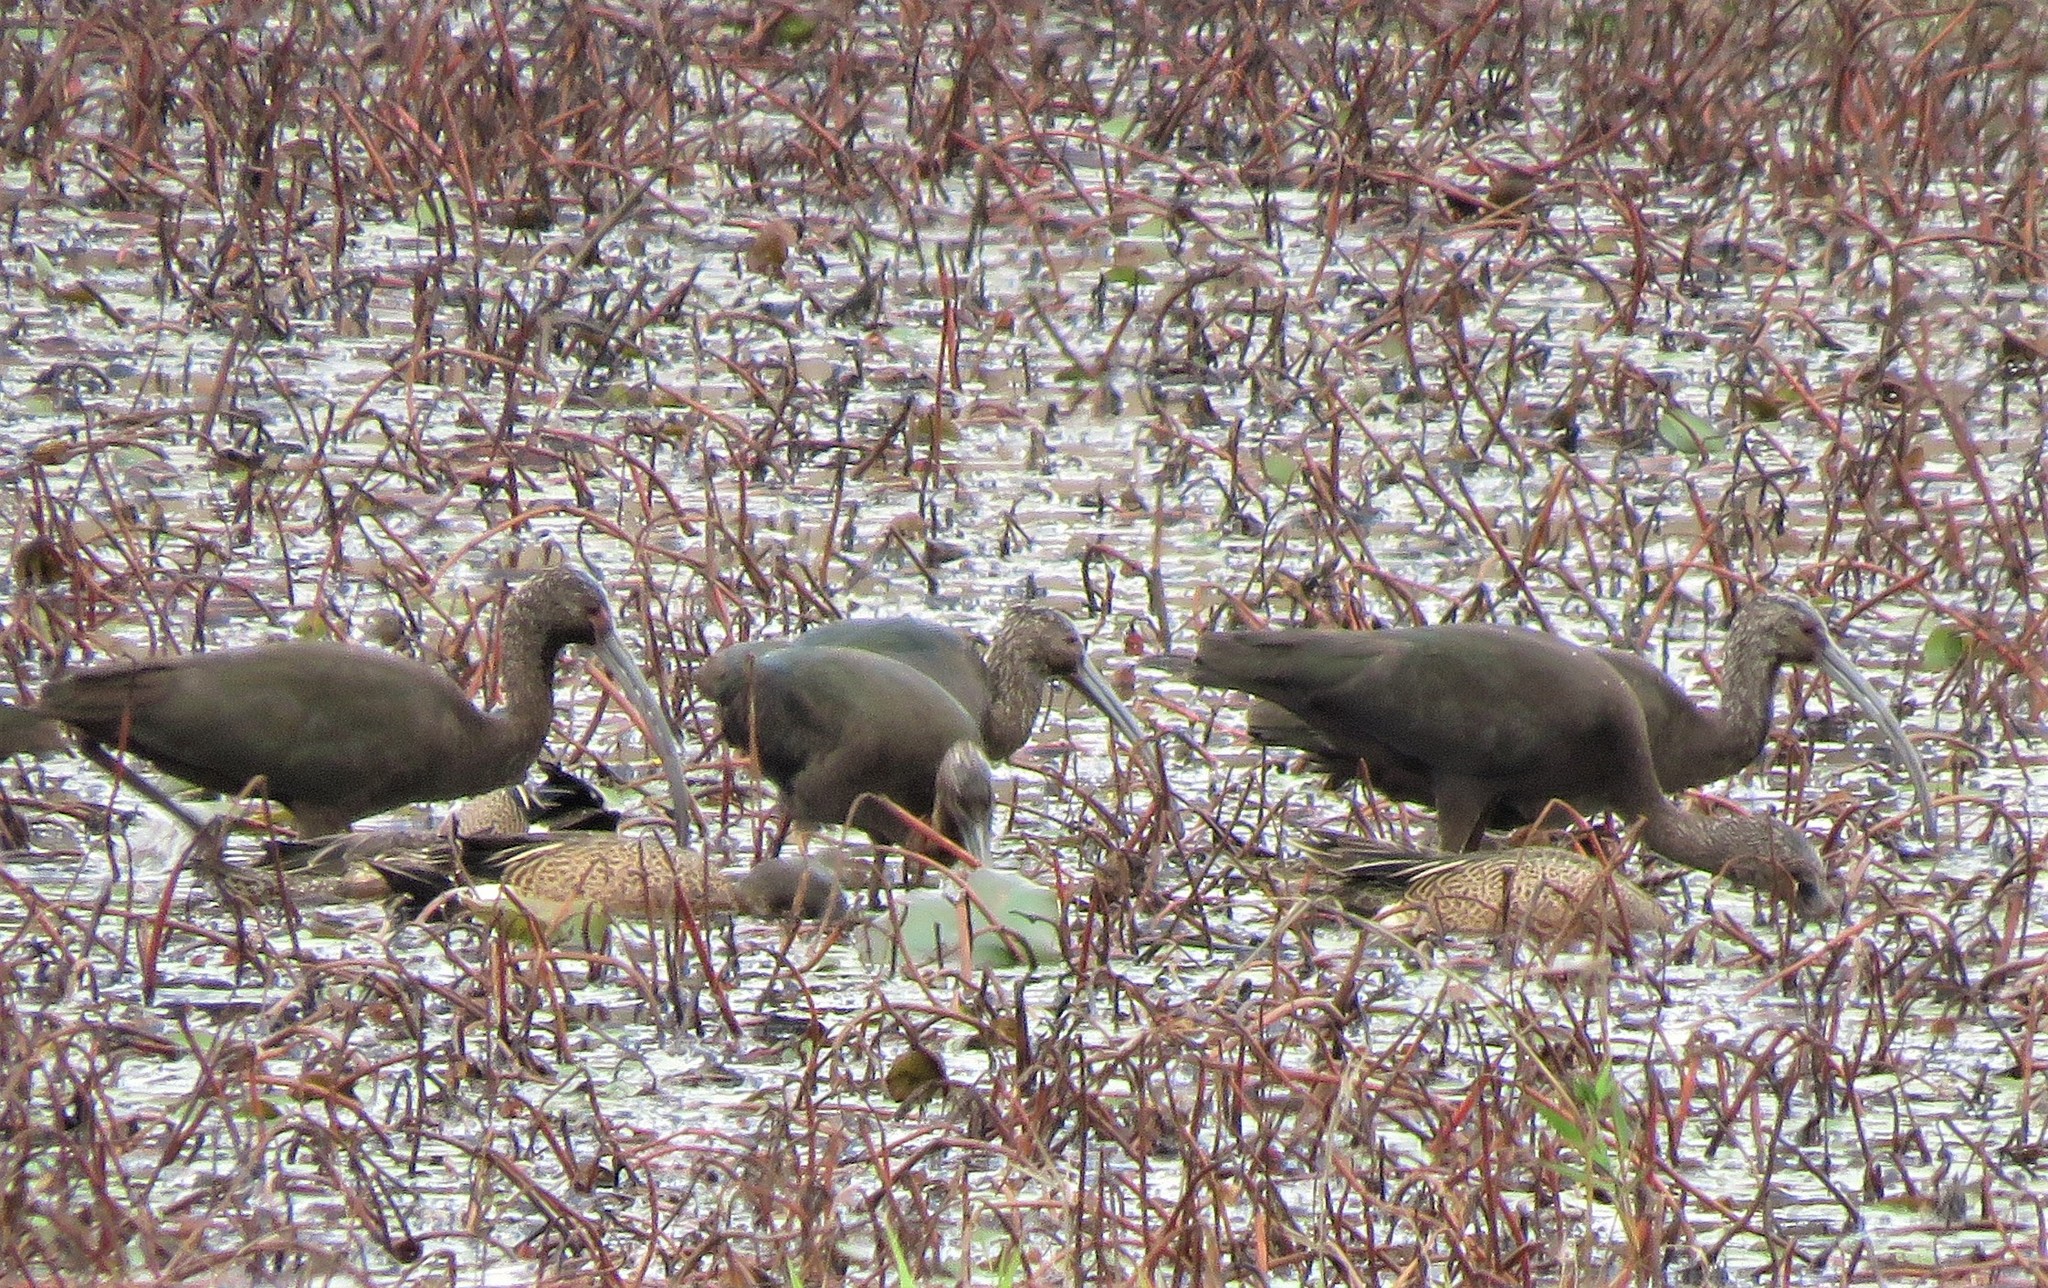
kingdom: Animalia
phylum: Chordata
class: Aves
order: Pelecaniformes
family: Threskiornithidae
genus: Plegadis
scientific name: Plegadis chihi
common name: White-faced ibis
